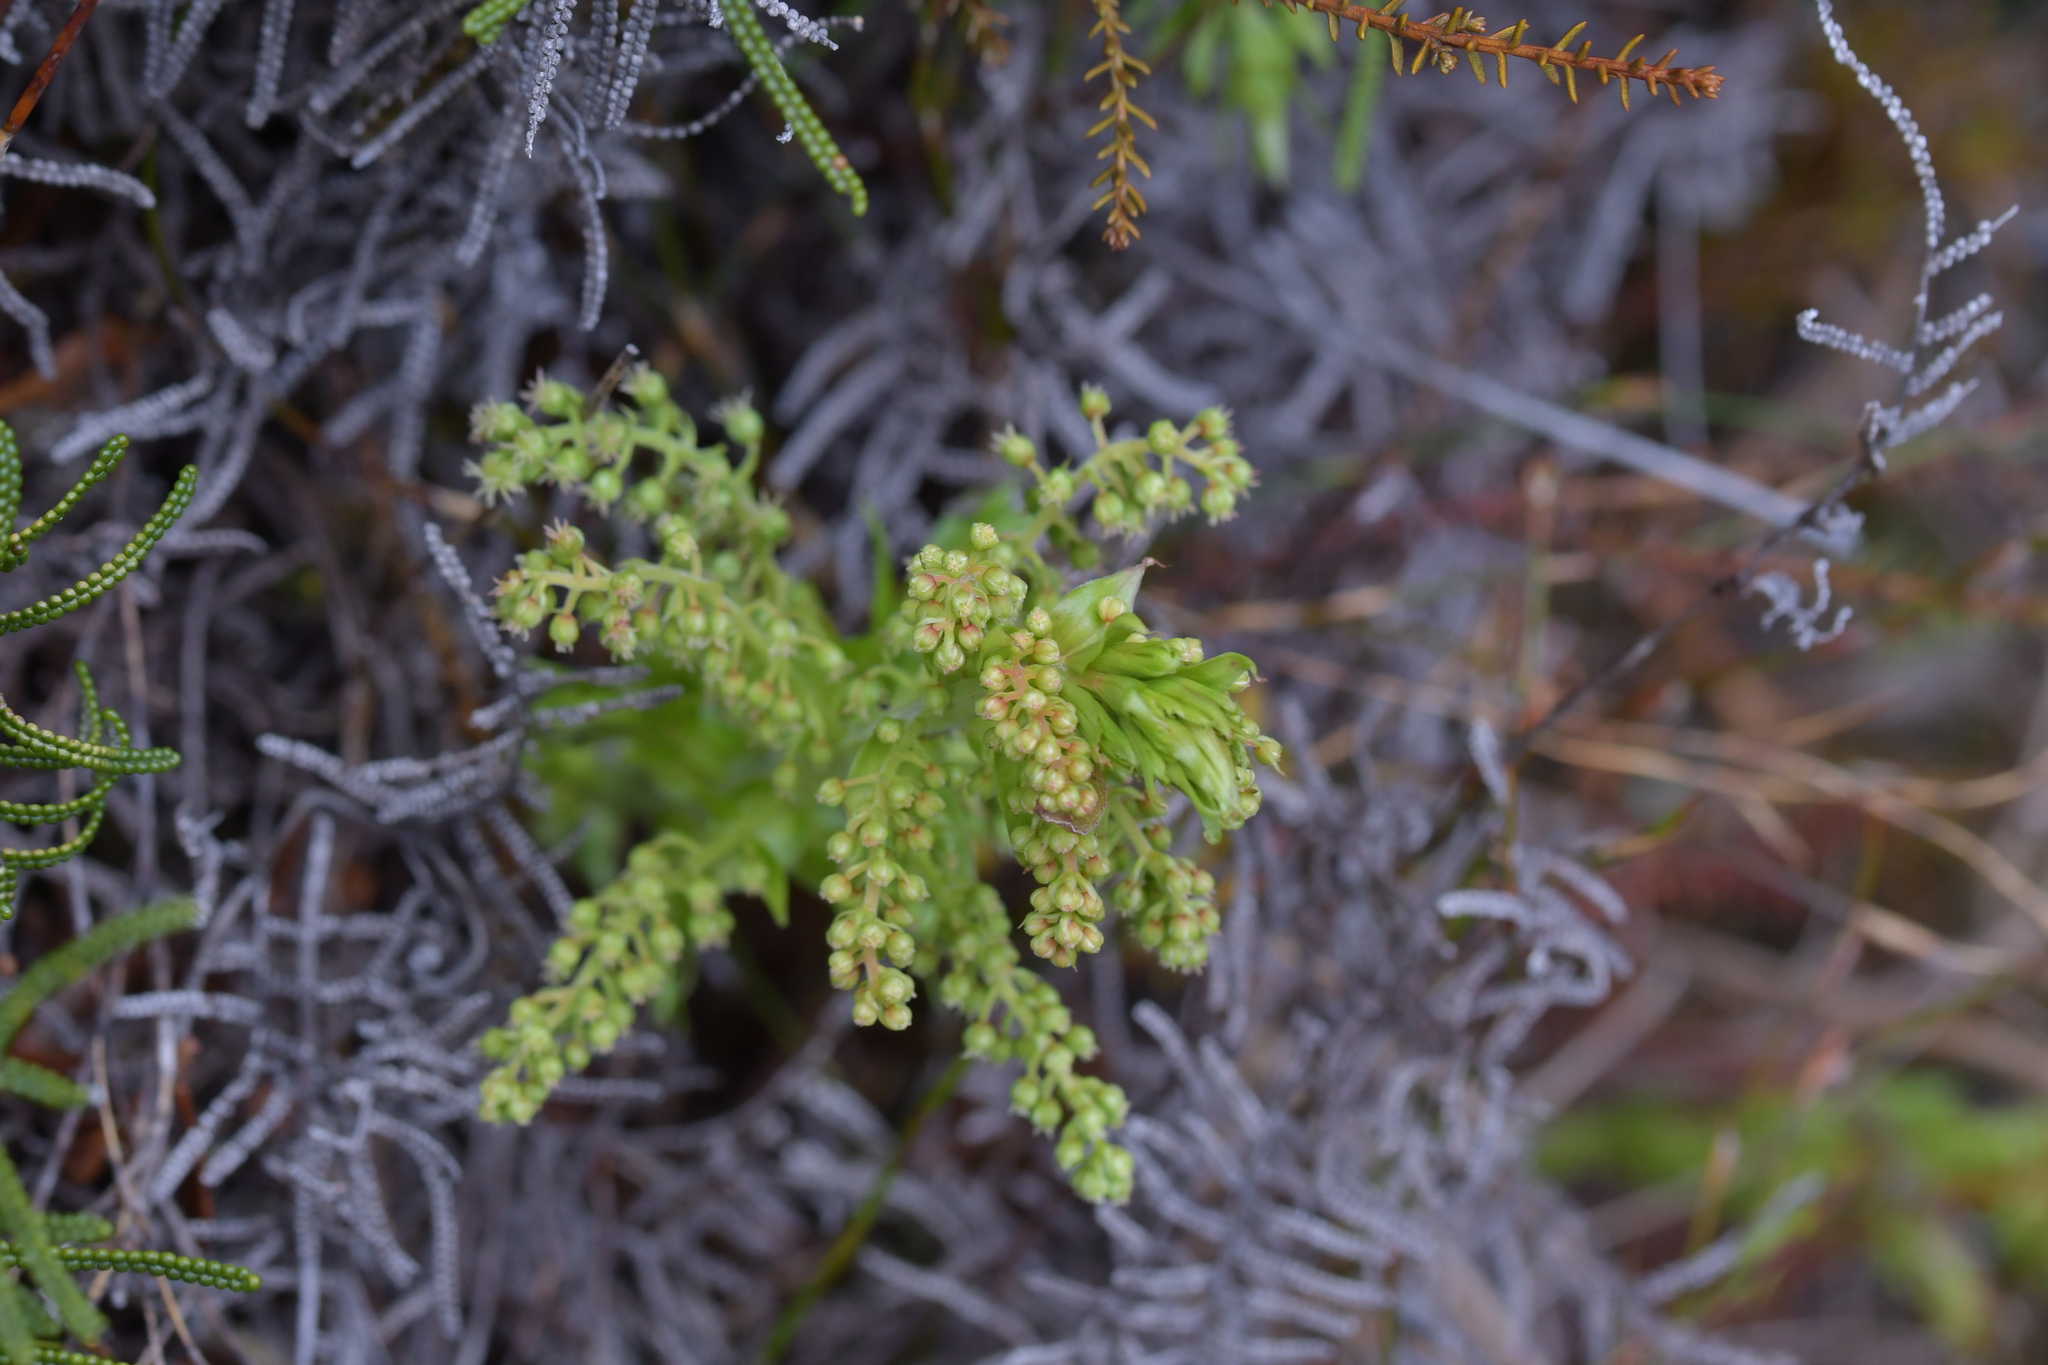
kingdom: Plantae
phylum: Tracheophyta
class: Magnoliopsida
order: Cucurbitales
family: Coriariaceae
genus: Coriaria
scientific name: Coriaria pteridoides
